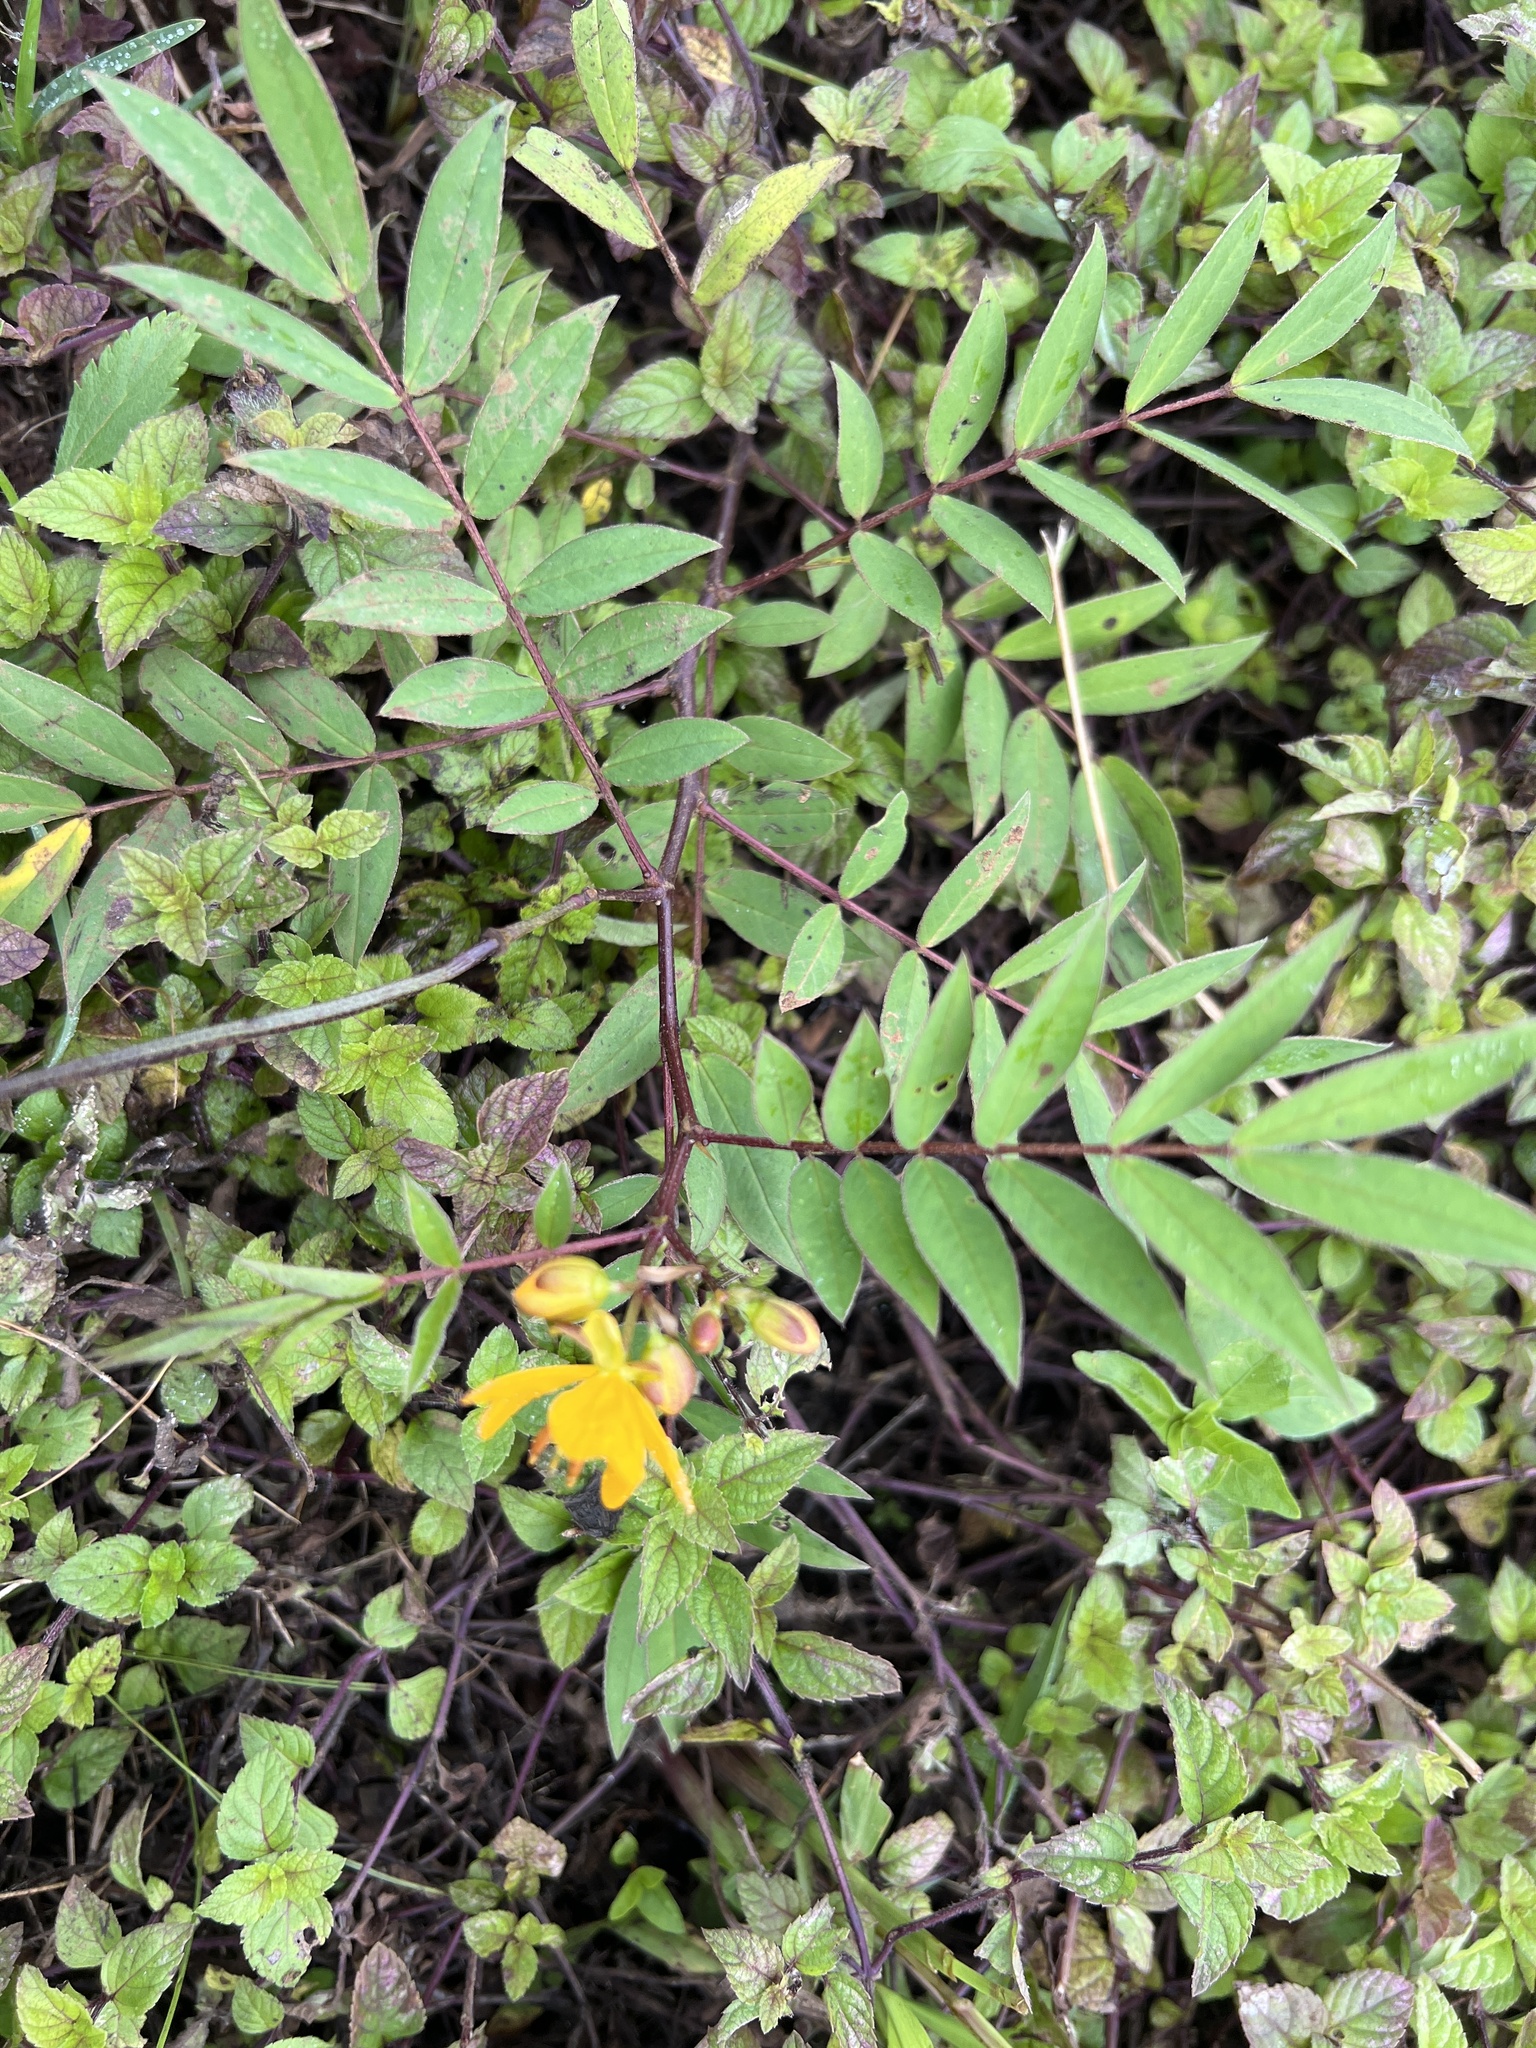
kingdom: Plantae
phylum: Tracheophyta
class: Magnoliopsida
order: Fabales
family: Fabaceae
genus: Senna
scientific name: Senna occidentalis
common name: Septicweed
